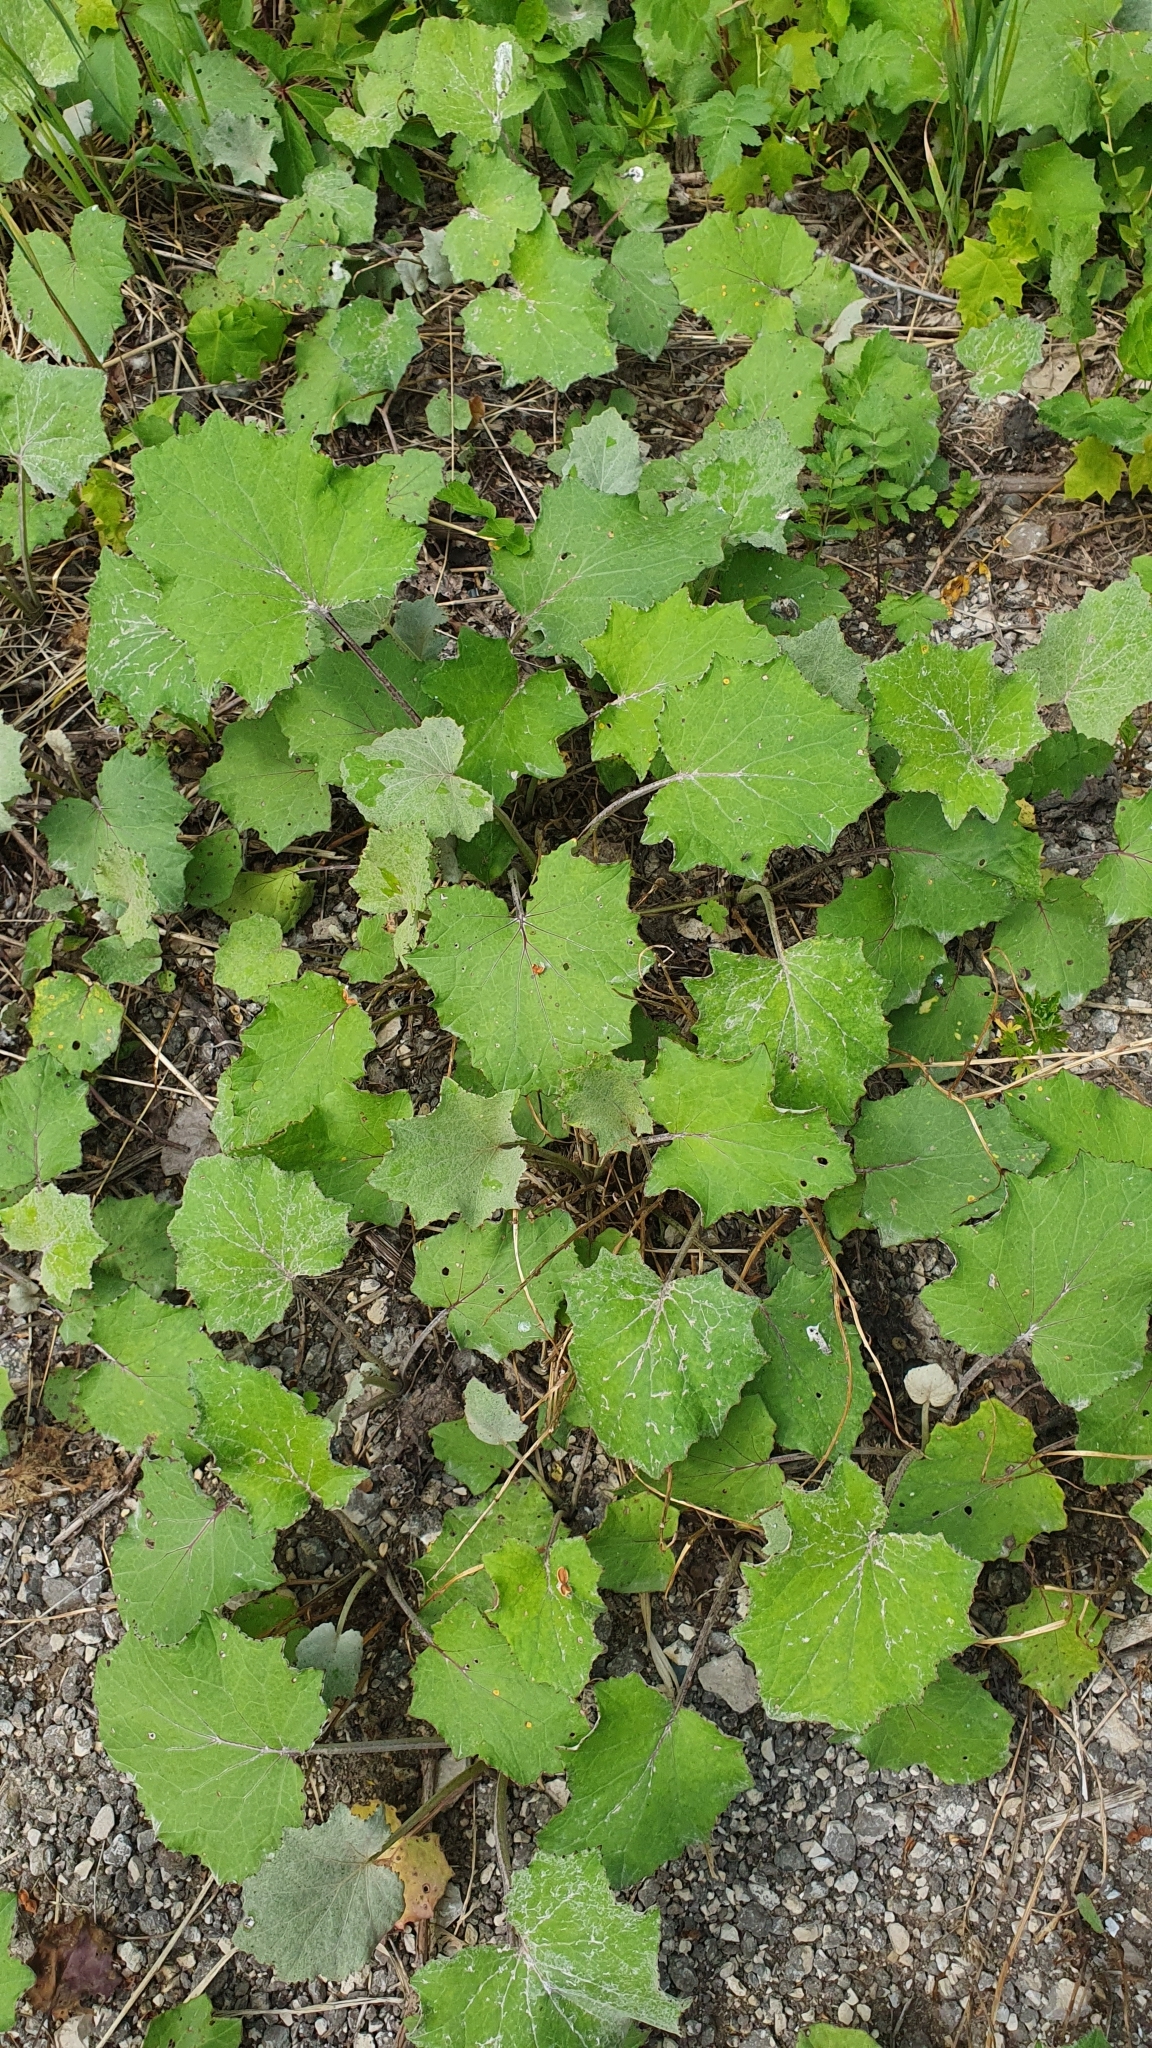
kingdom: Plantae
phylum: Tracheophyta
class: Magnoliopsida
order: Asterales
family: Asteraceae
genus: Tussilago
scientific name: Tussilago farfara
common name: Coltsfoot
